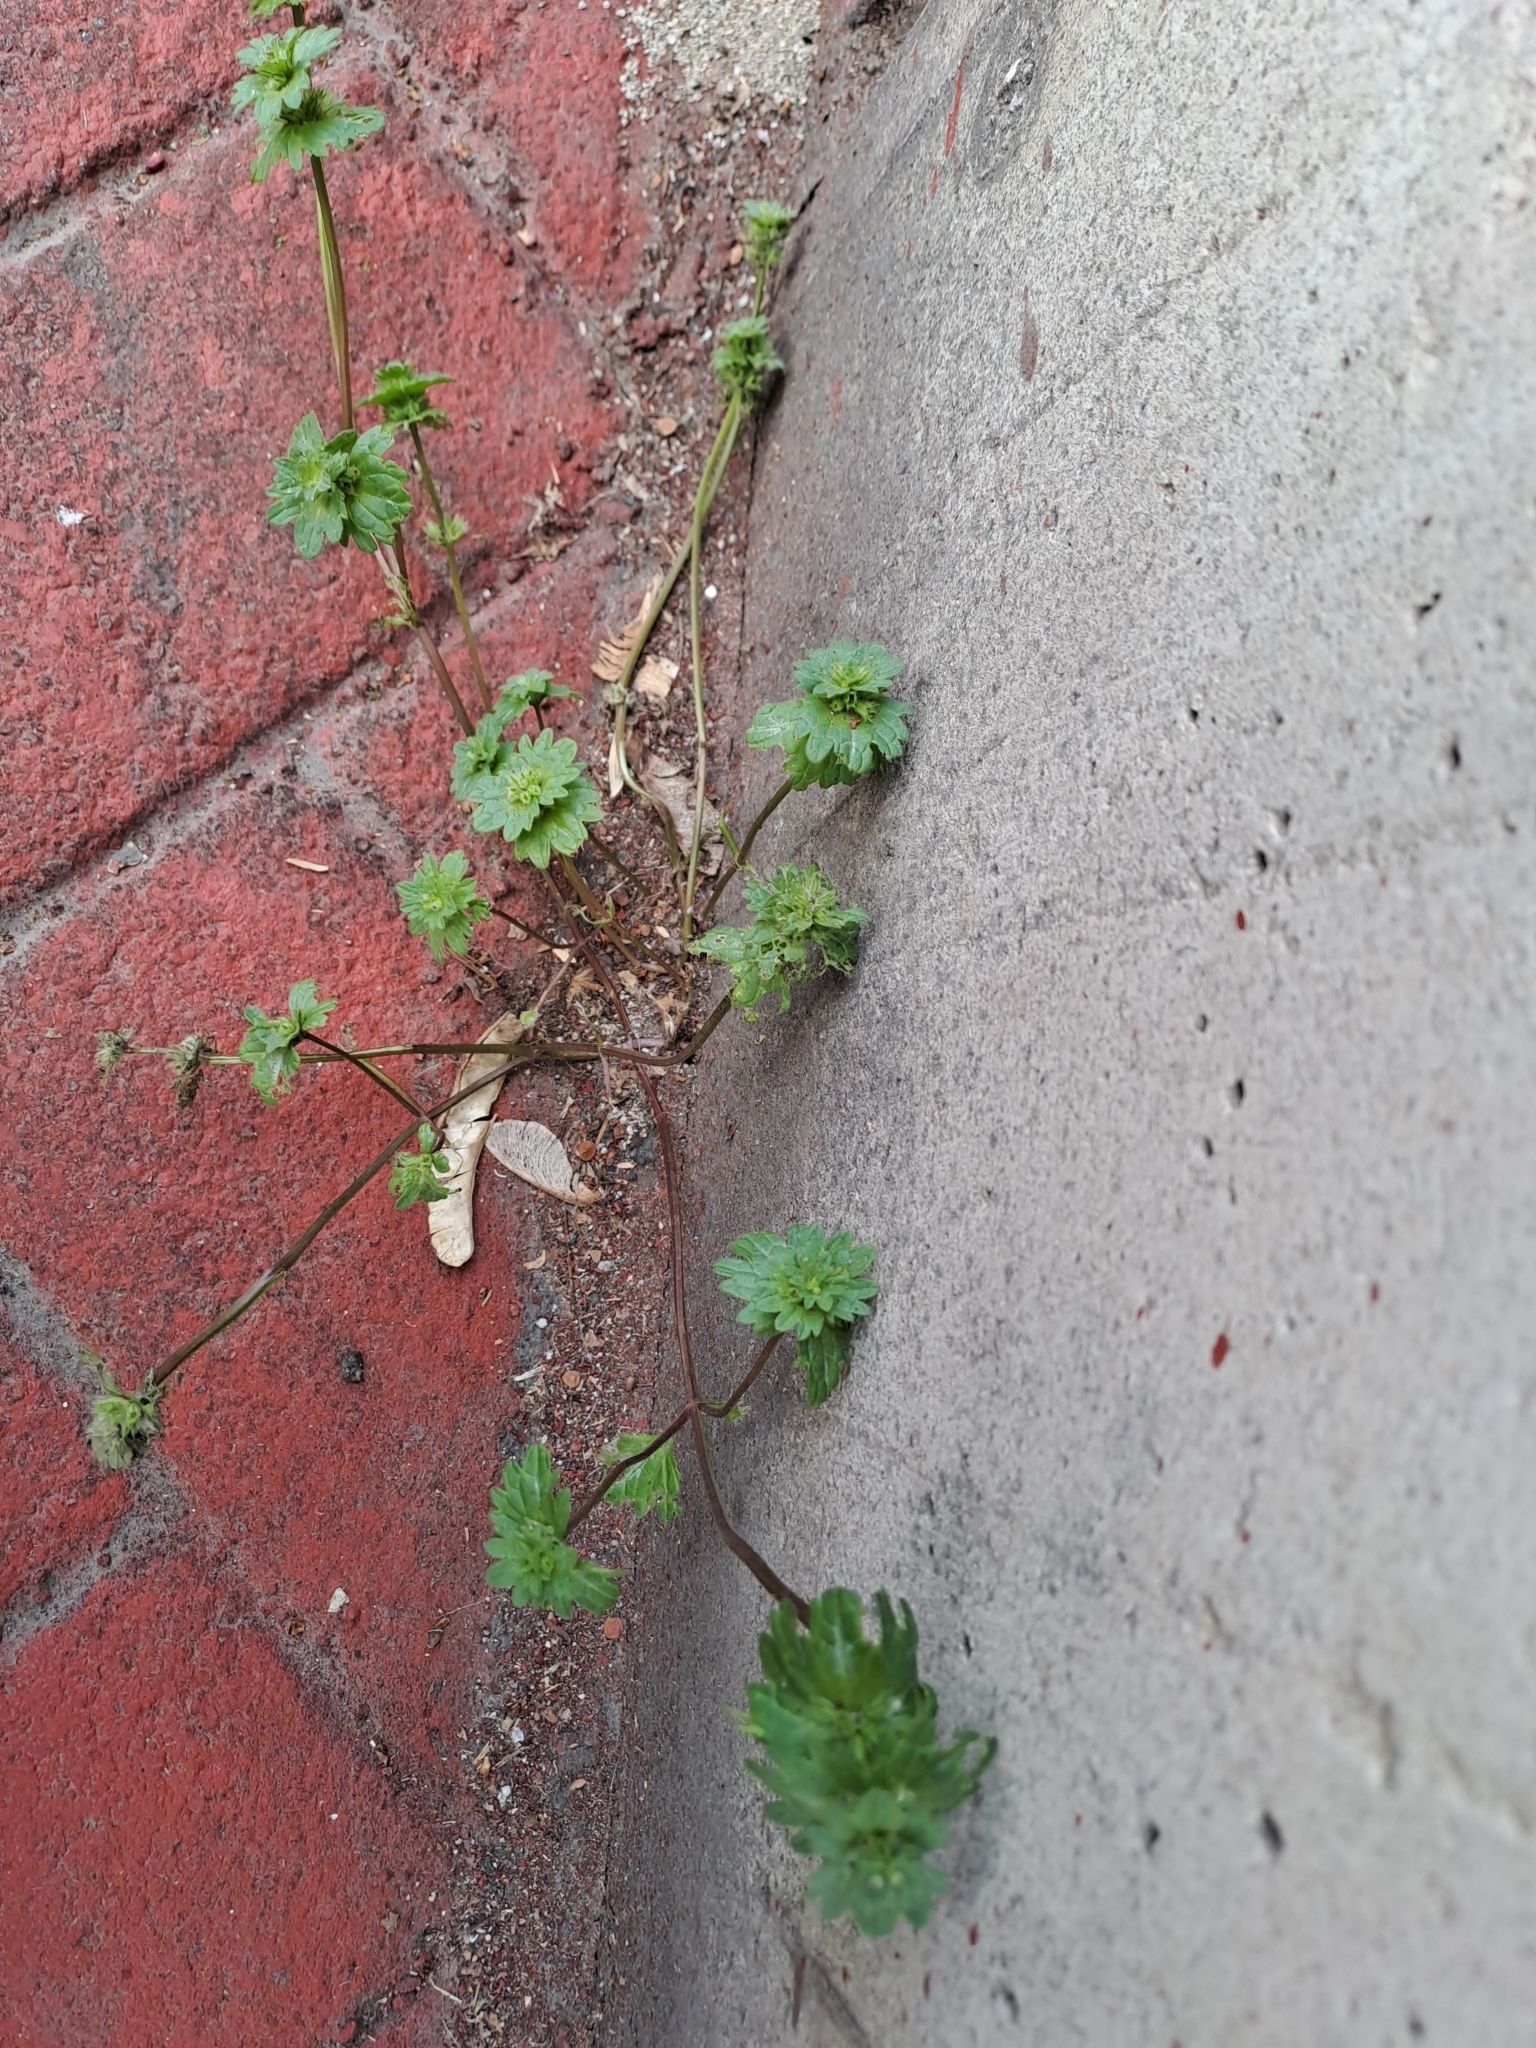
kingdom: Plantae
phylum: Tracheophyta
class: Magnoliopsida
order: Lamiales
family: Lamiaceae
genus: Lamium
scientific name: Lamium amplexicaule
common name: Henbit dead-nettle
